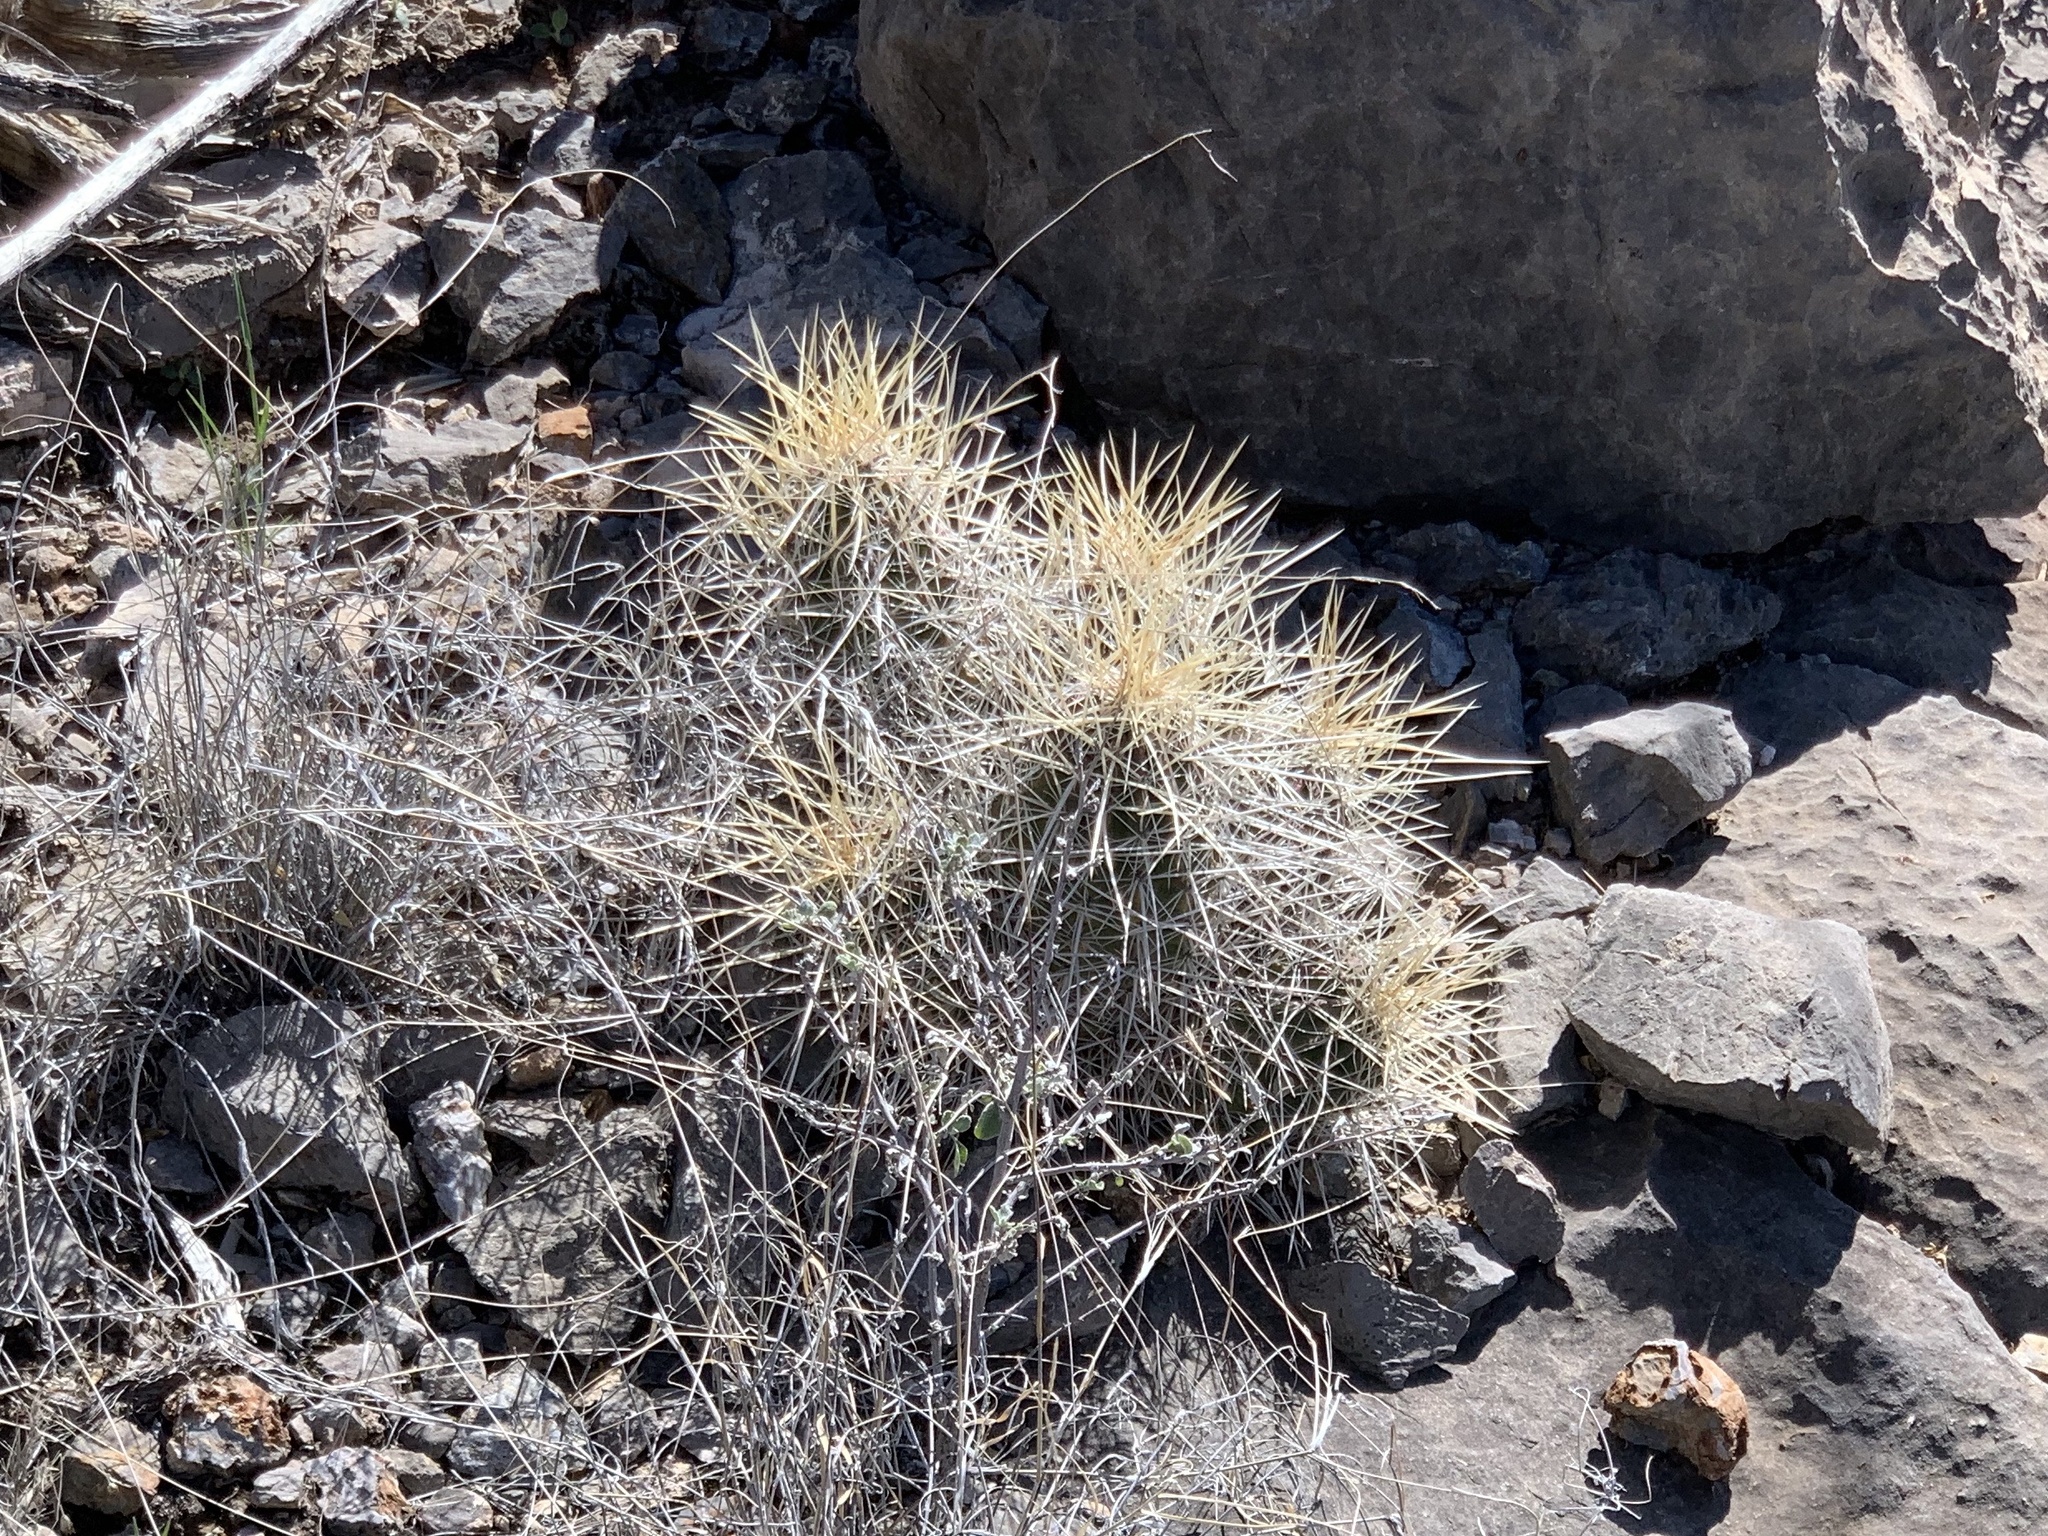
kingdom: Plantae
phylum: Tracheophyta
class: Magnoliopsida
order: Caryophyllales
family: Cactaceae
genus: Echinocereus
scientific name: Echinocereus stramineus
